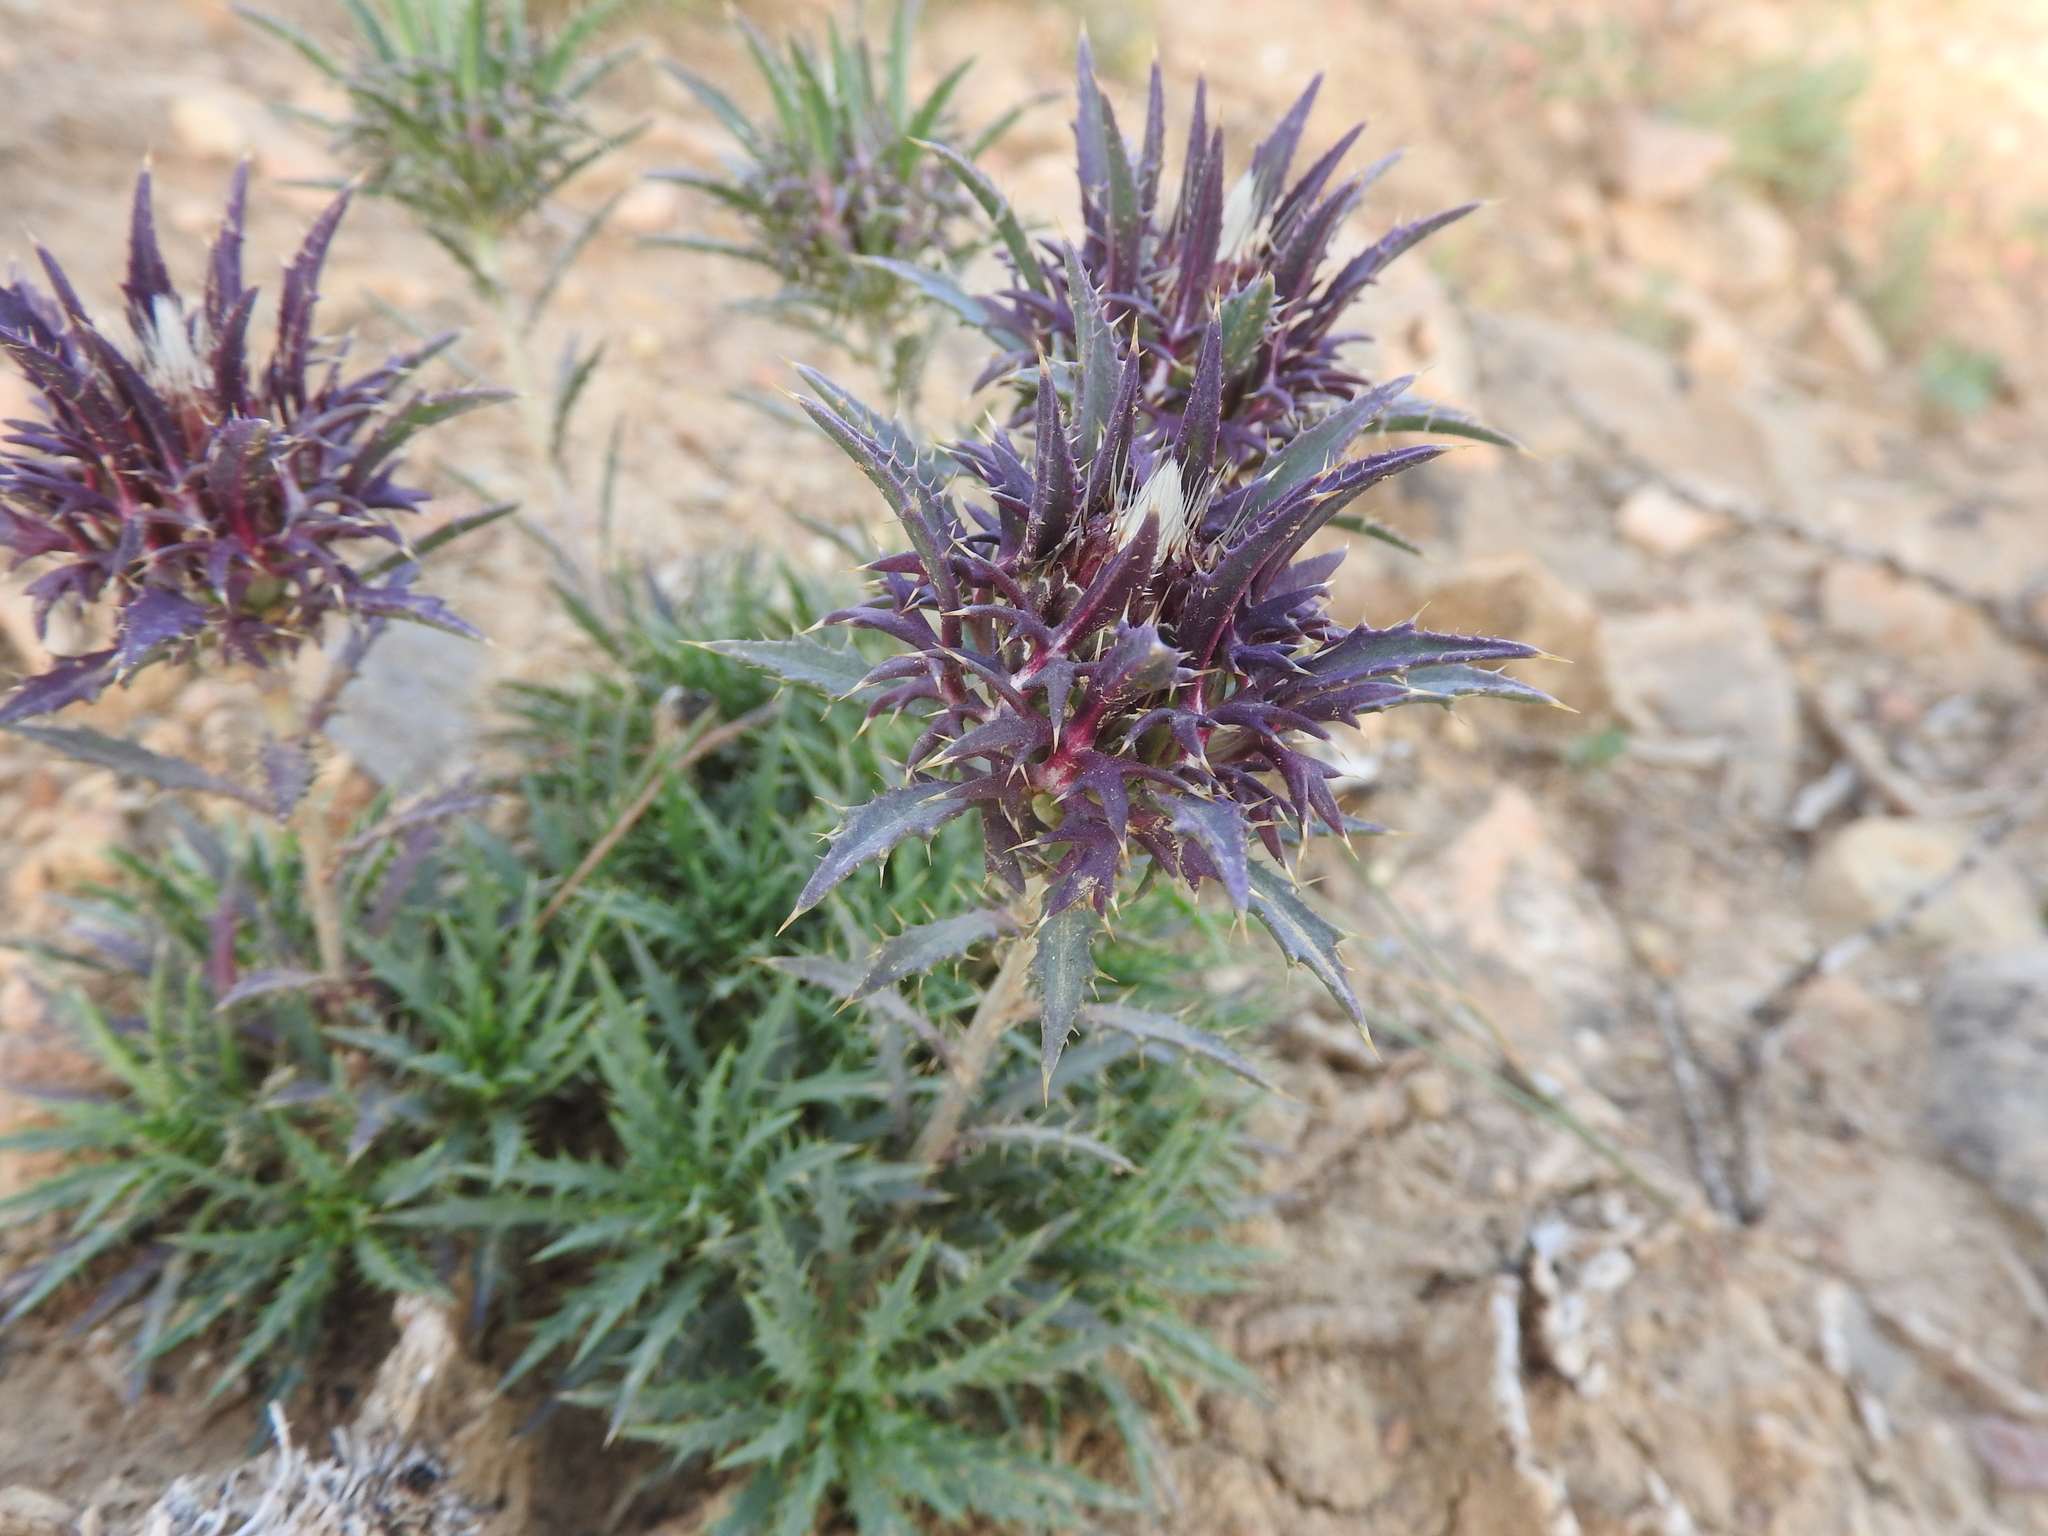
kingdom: Plantae
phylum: Tracheophyta
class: Magnoliopsida
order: Asterales
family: Asteraceae
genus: Atractylis
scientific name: Atractylis caespitosa
